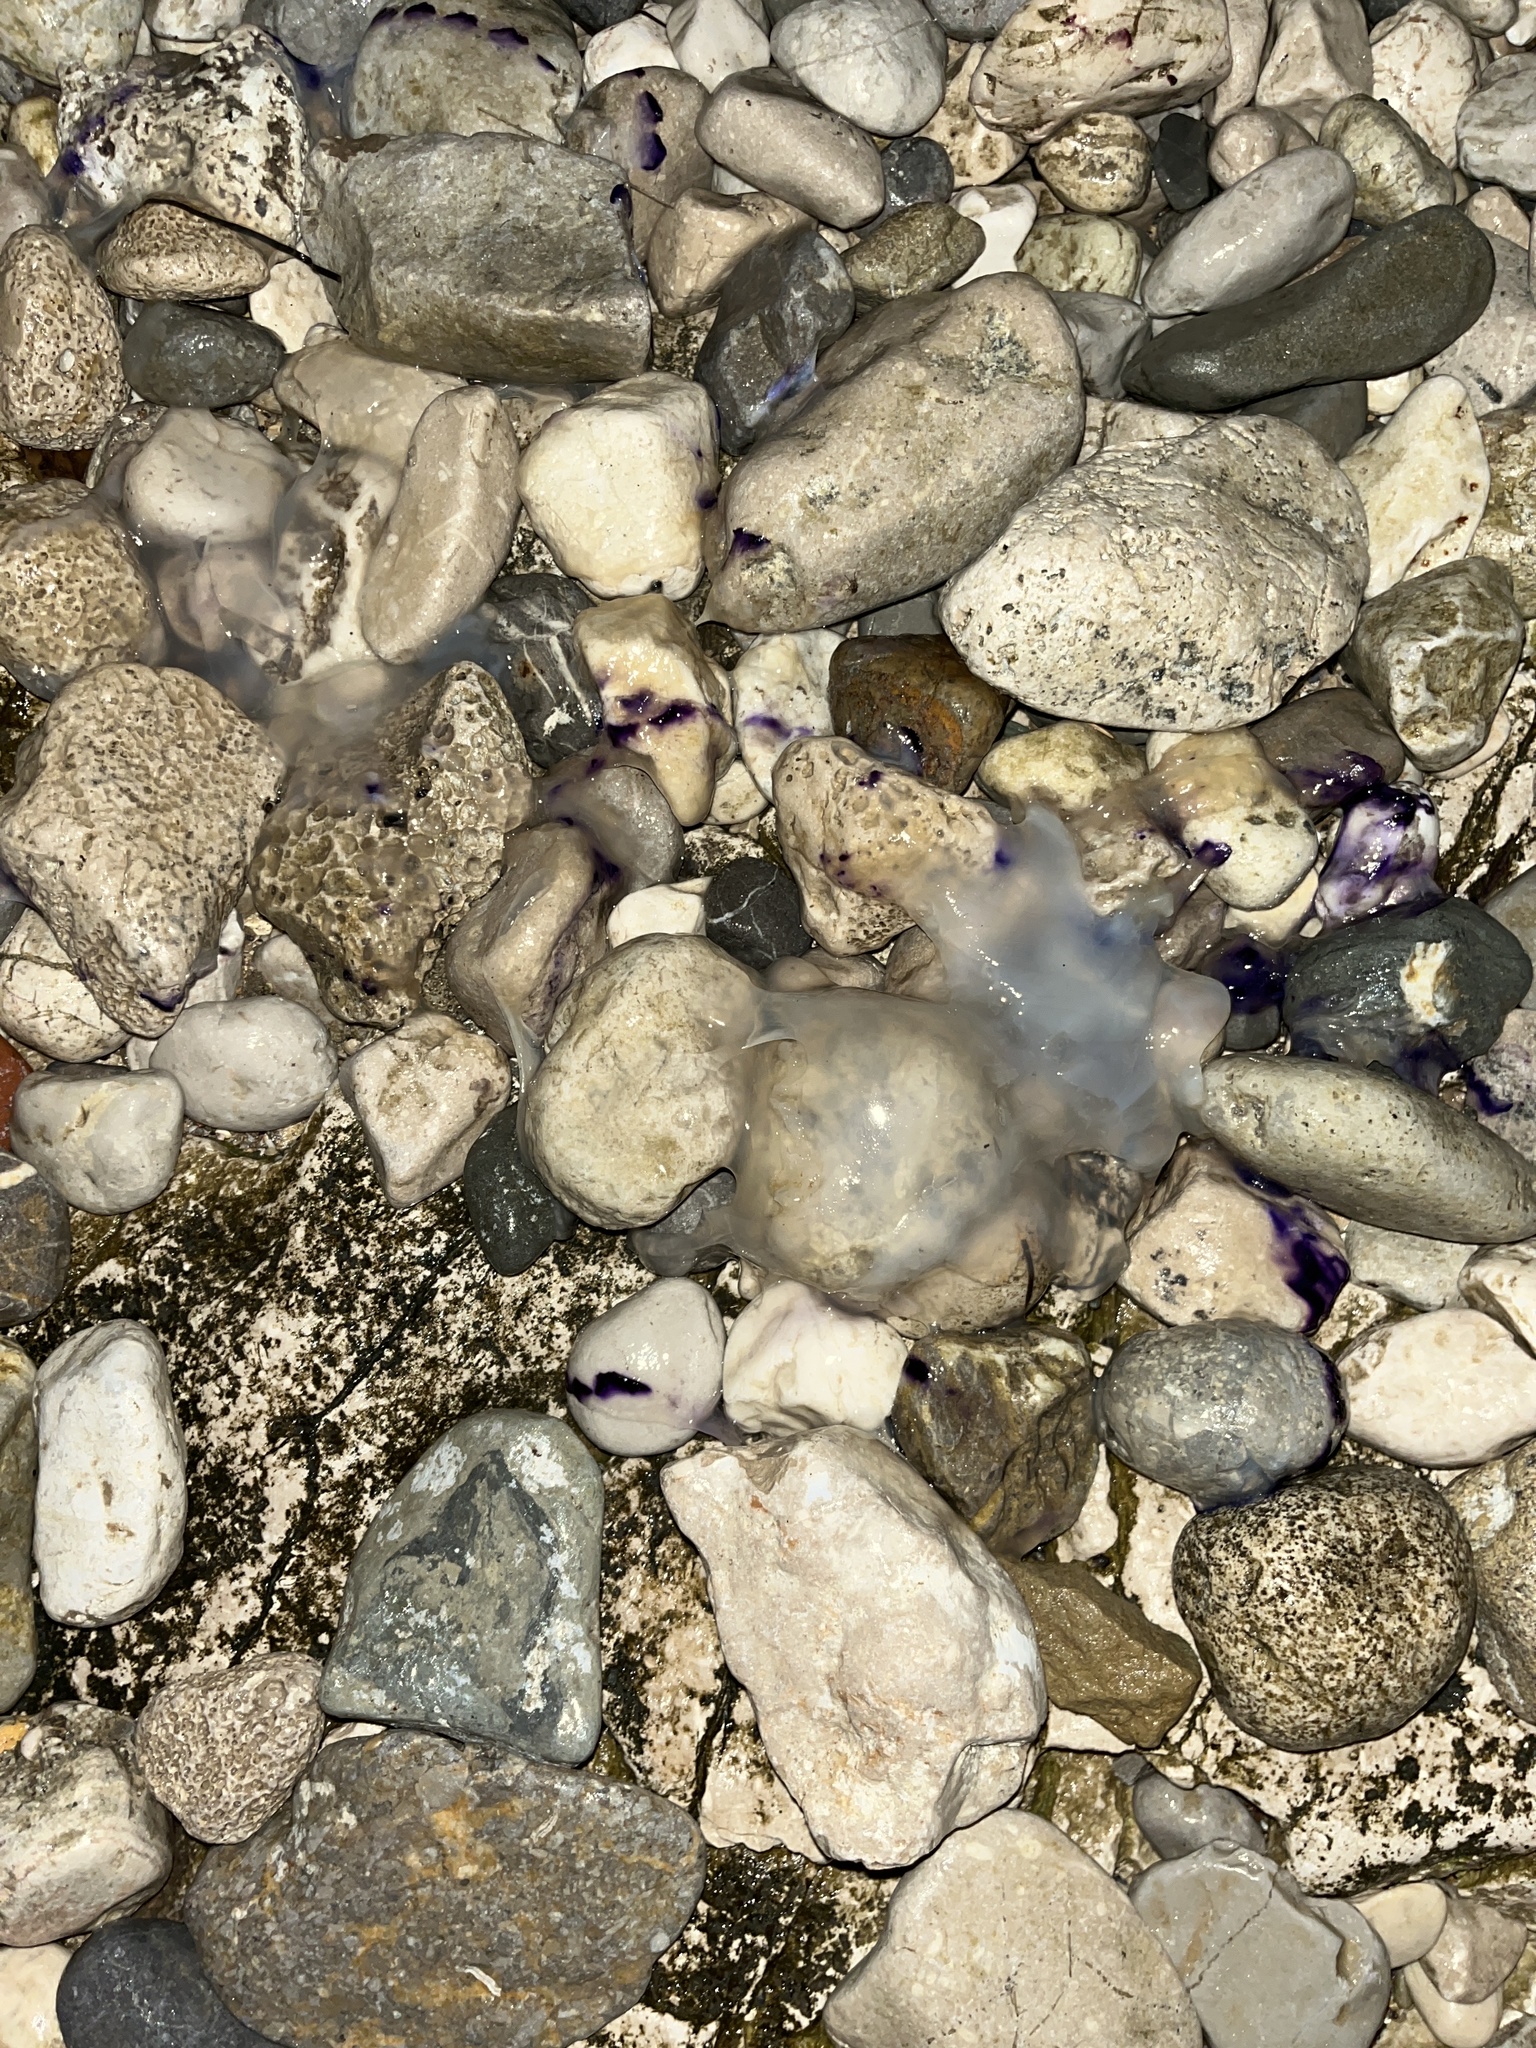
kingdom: Animalia
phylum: Cnidaria
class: Scyphozoa
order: Rhizostomeae
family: Rhizostomatidae
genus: Rhizostoma
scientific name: Rhizostoma pulmo
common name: Barrel jellyfish
